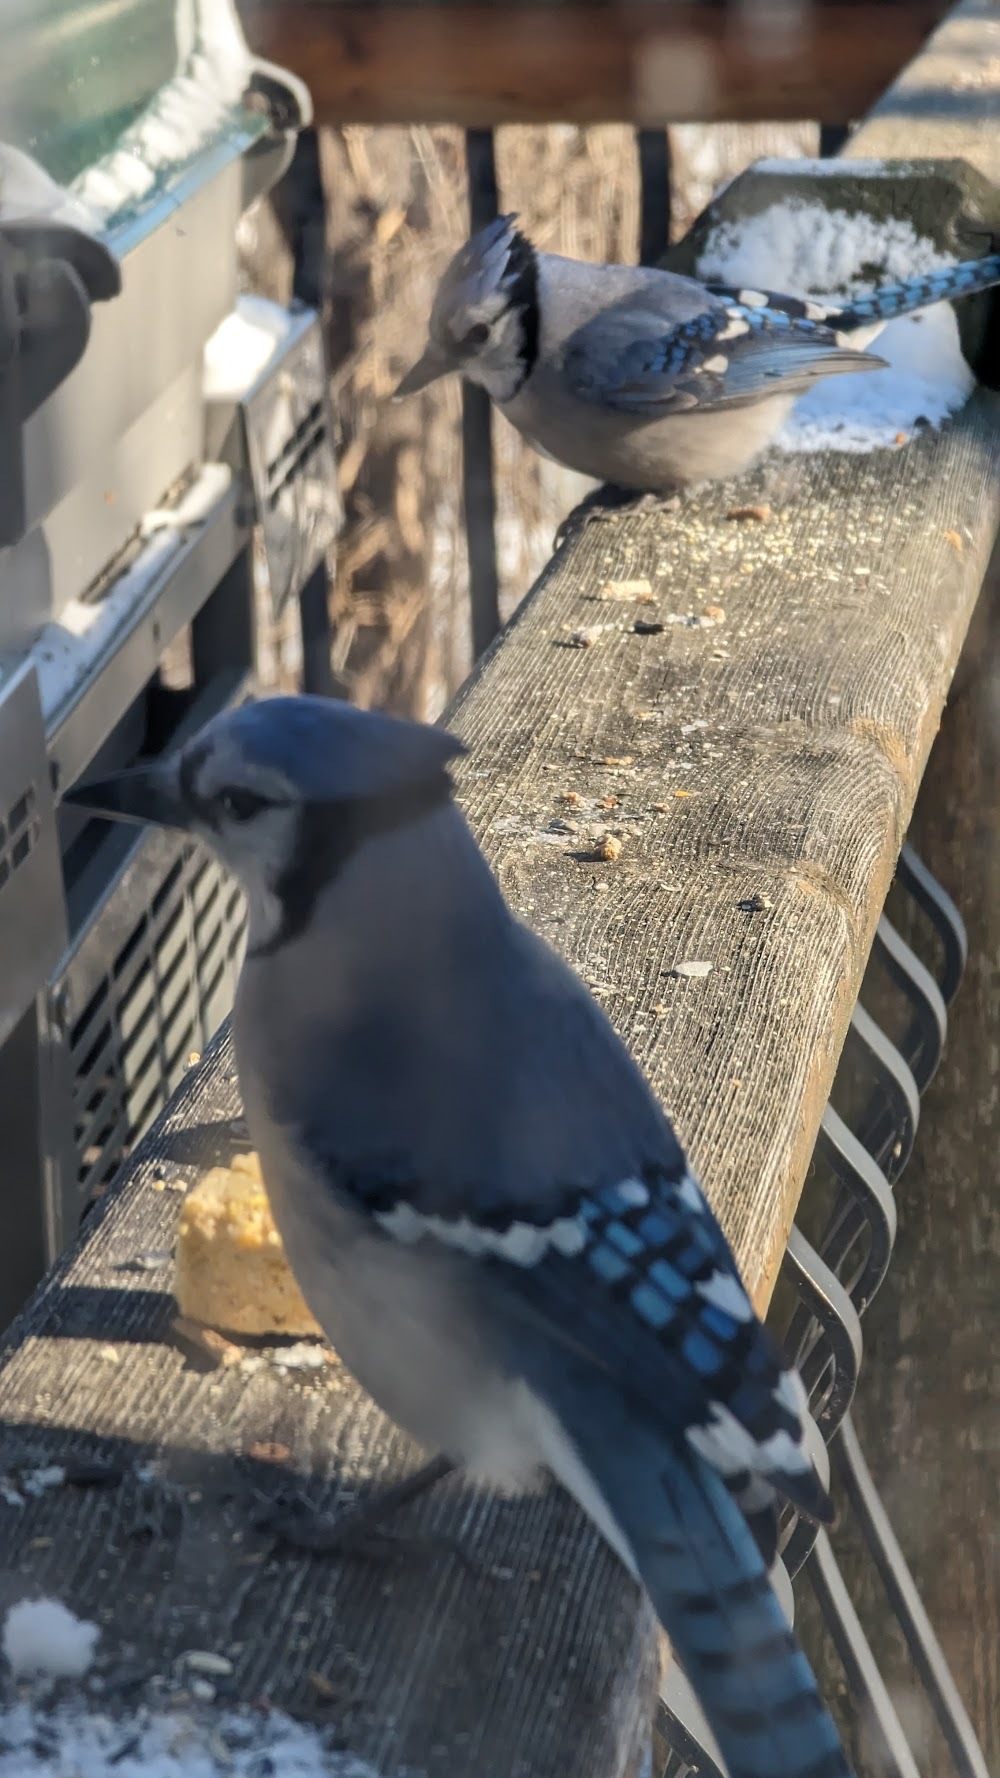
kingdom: Animalia
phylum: Chordata
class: Aves
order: Passeriformes
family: Corvidae
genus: Cyanocitta
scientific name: Cyanocitta cristata
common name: Blue jay
